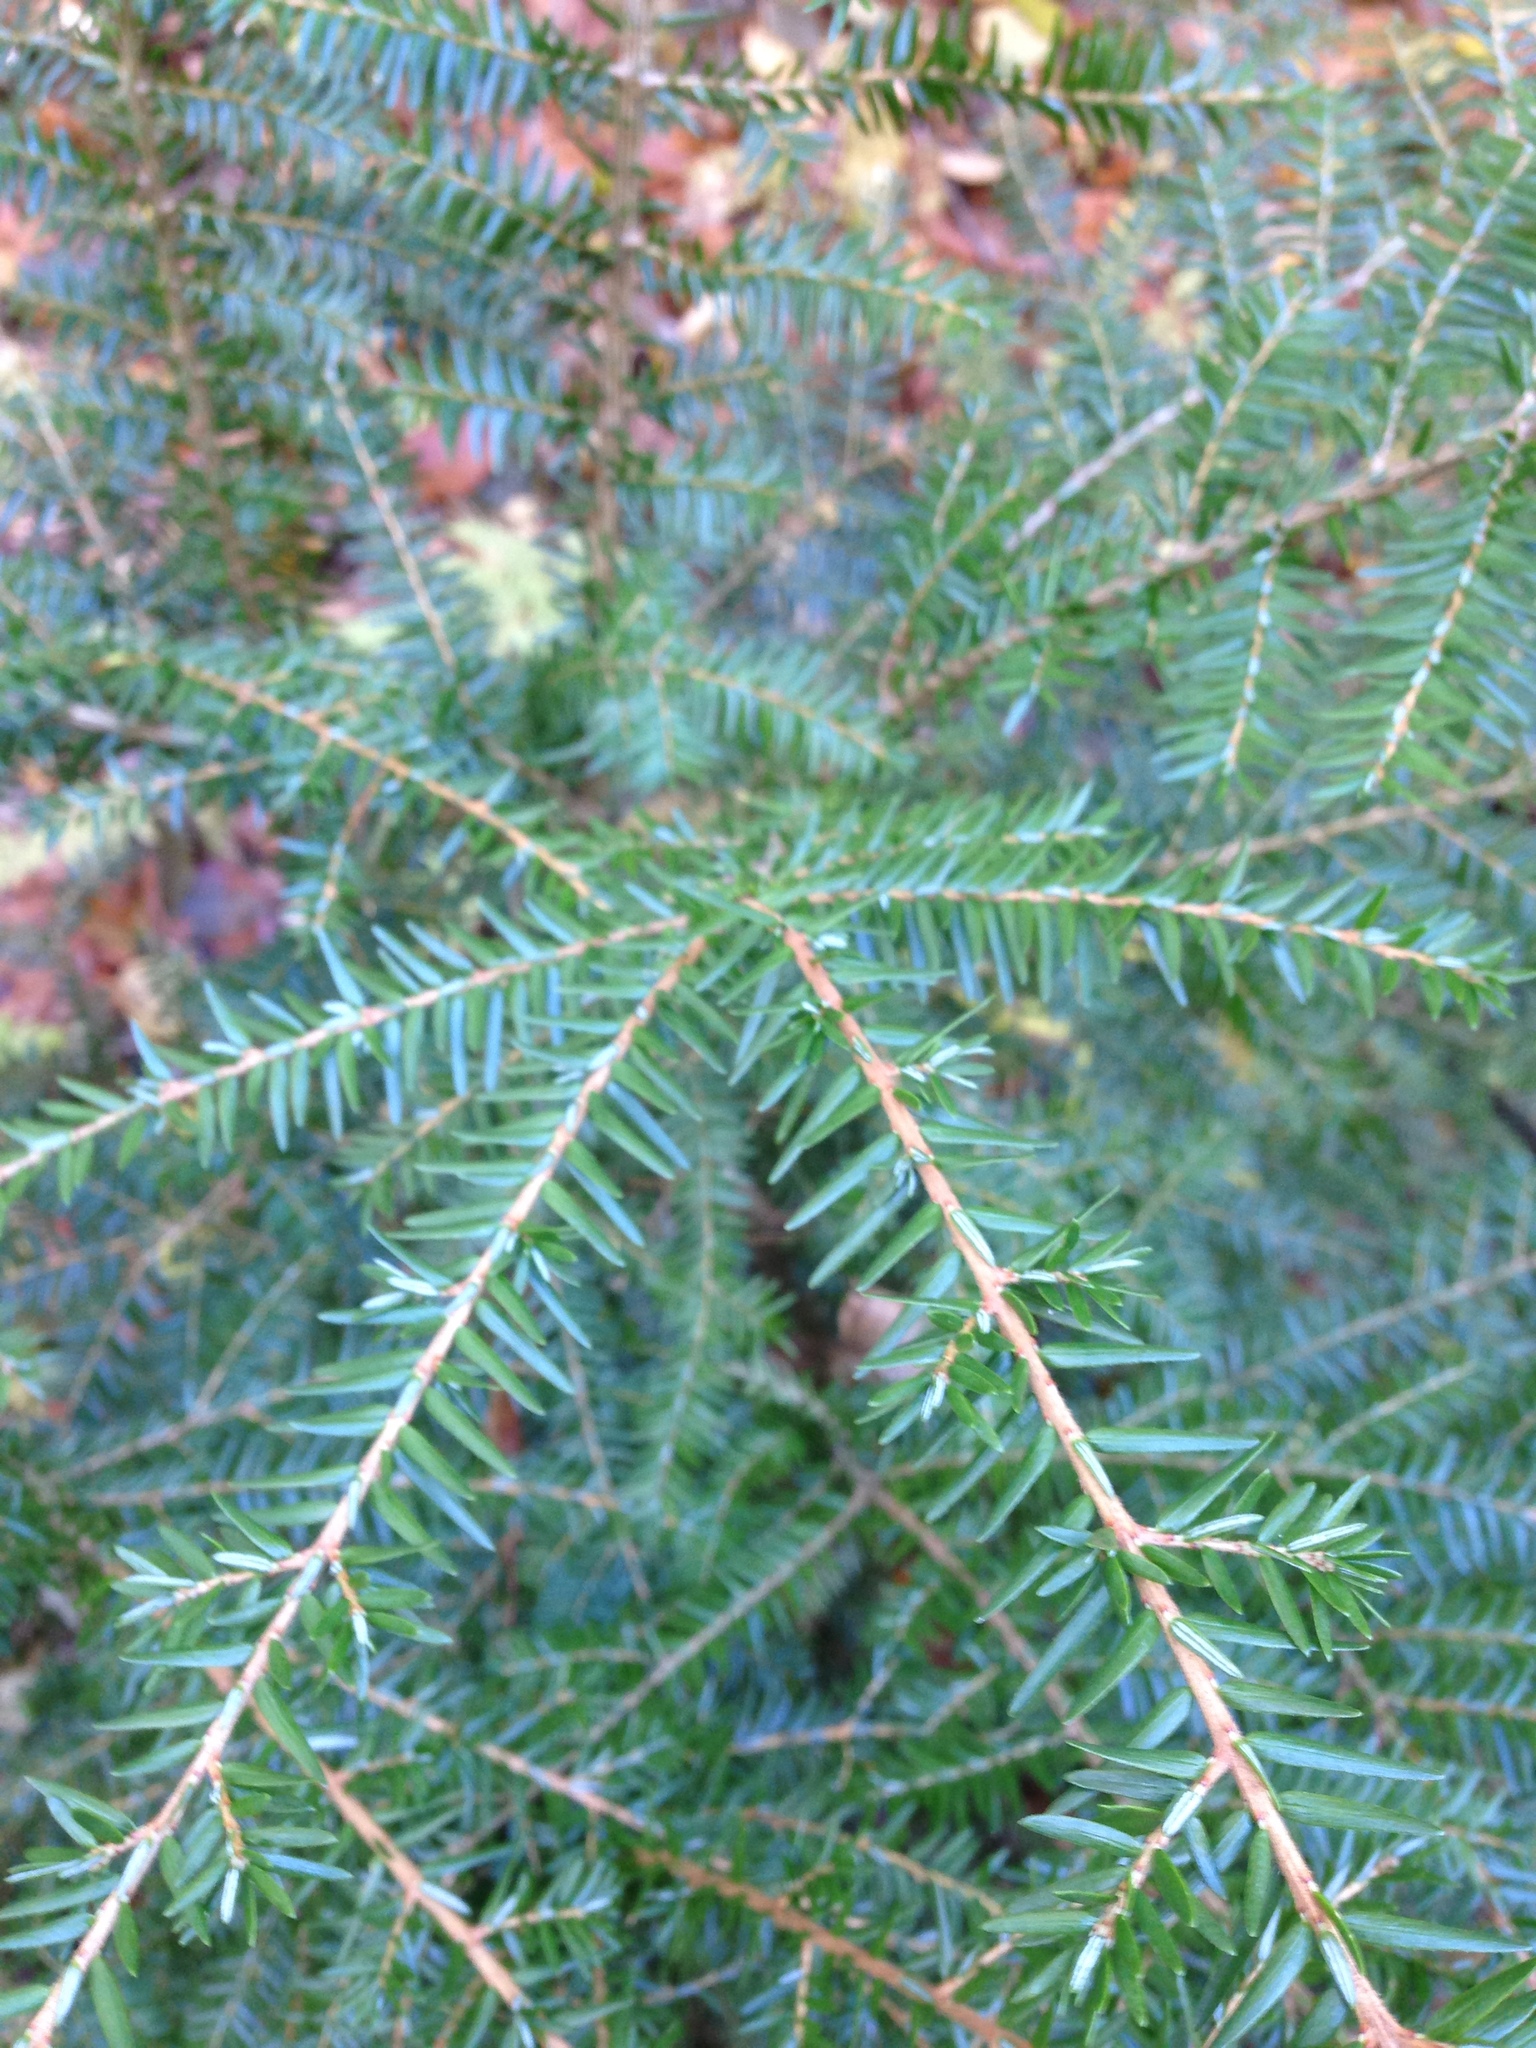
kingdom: Plantae
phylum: Tracheophyta
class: Pinopsida
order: Pinales
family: Pinaceae
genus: Tsuga
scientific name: Tsuga canadensis
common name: Eastern hemlock
